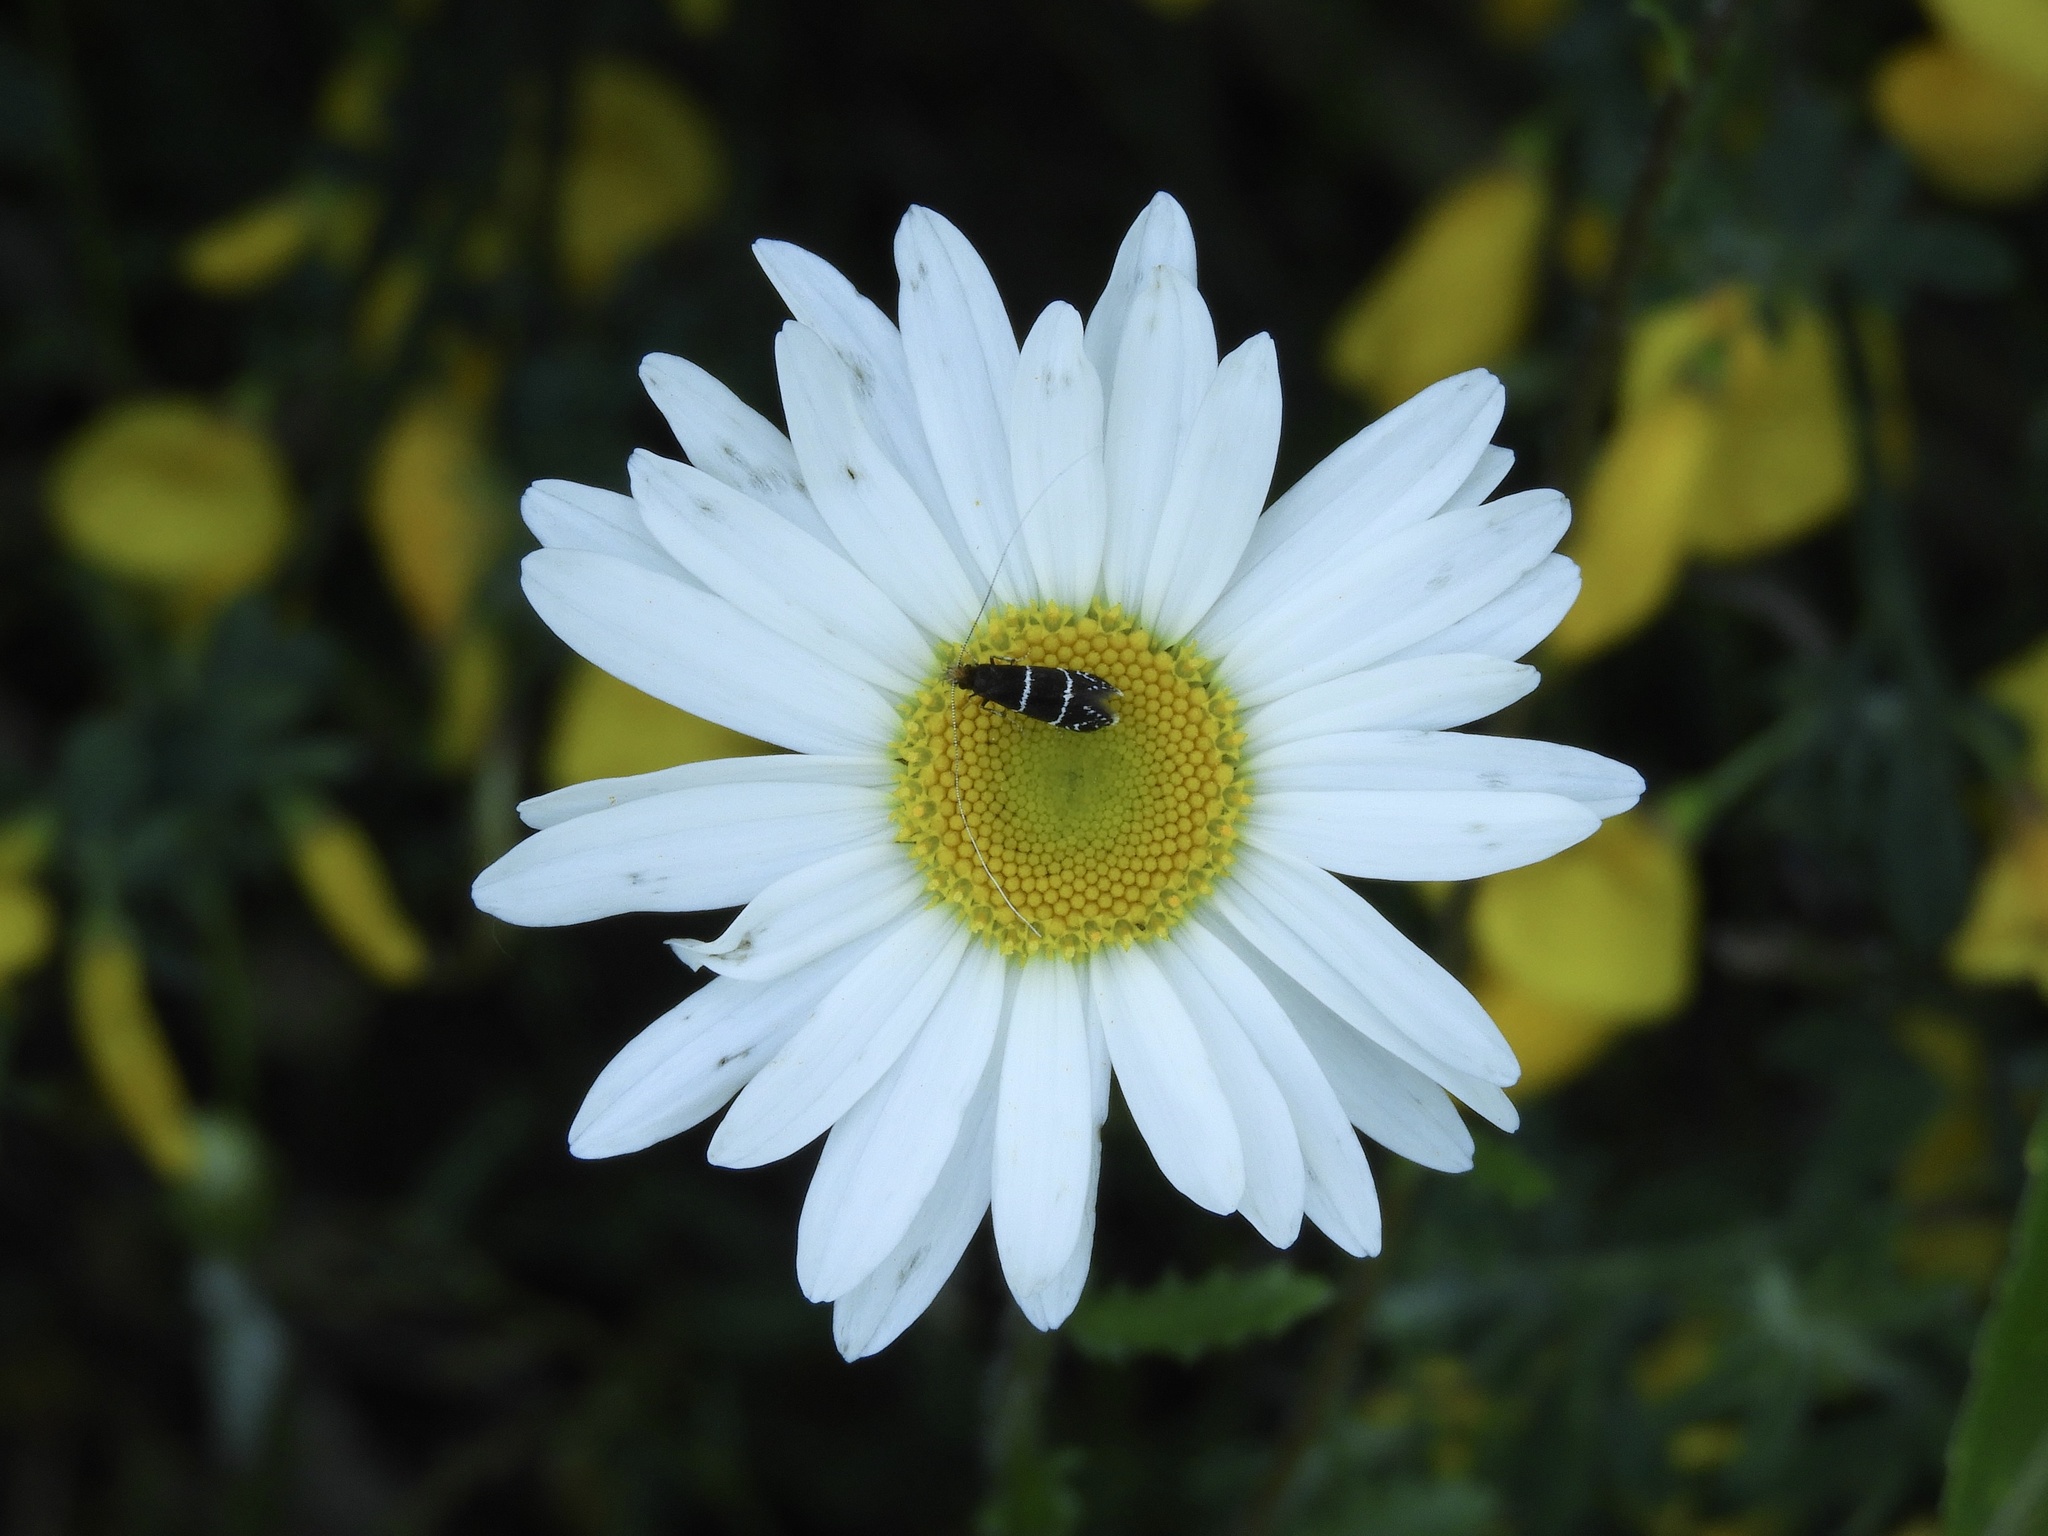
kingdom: Animalia
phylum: Arthropoda
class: Insecta
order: Lepidoptera
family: Adelidae
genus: Adela
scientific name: Adela septentrionella
